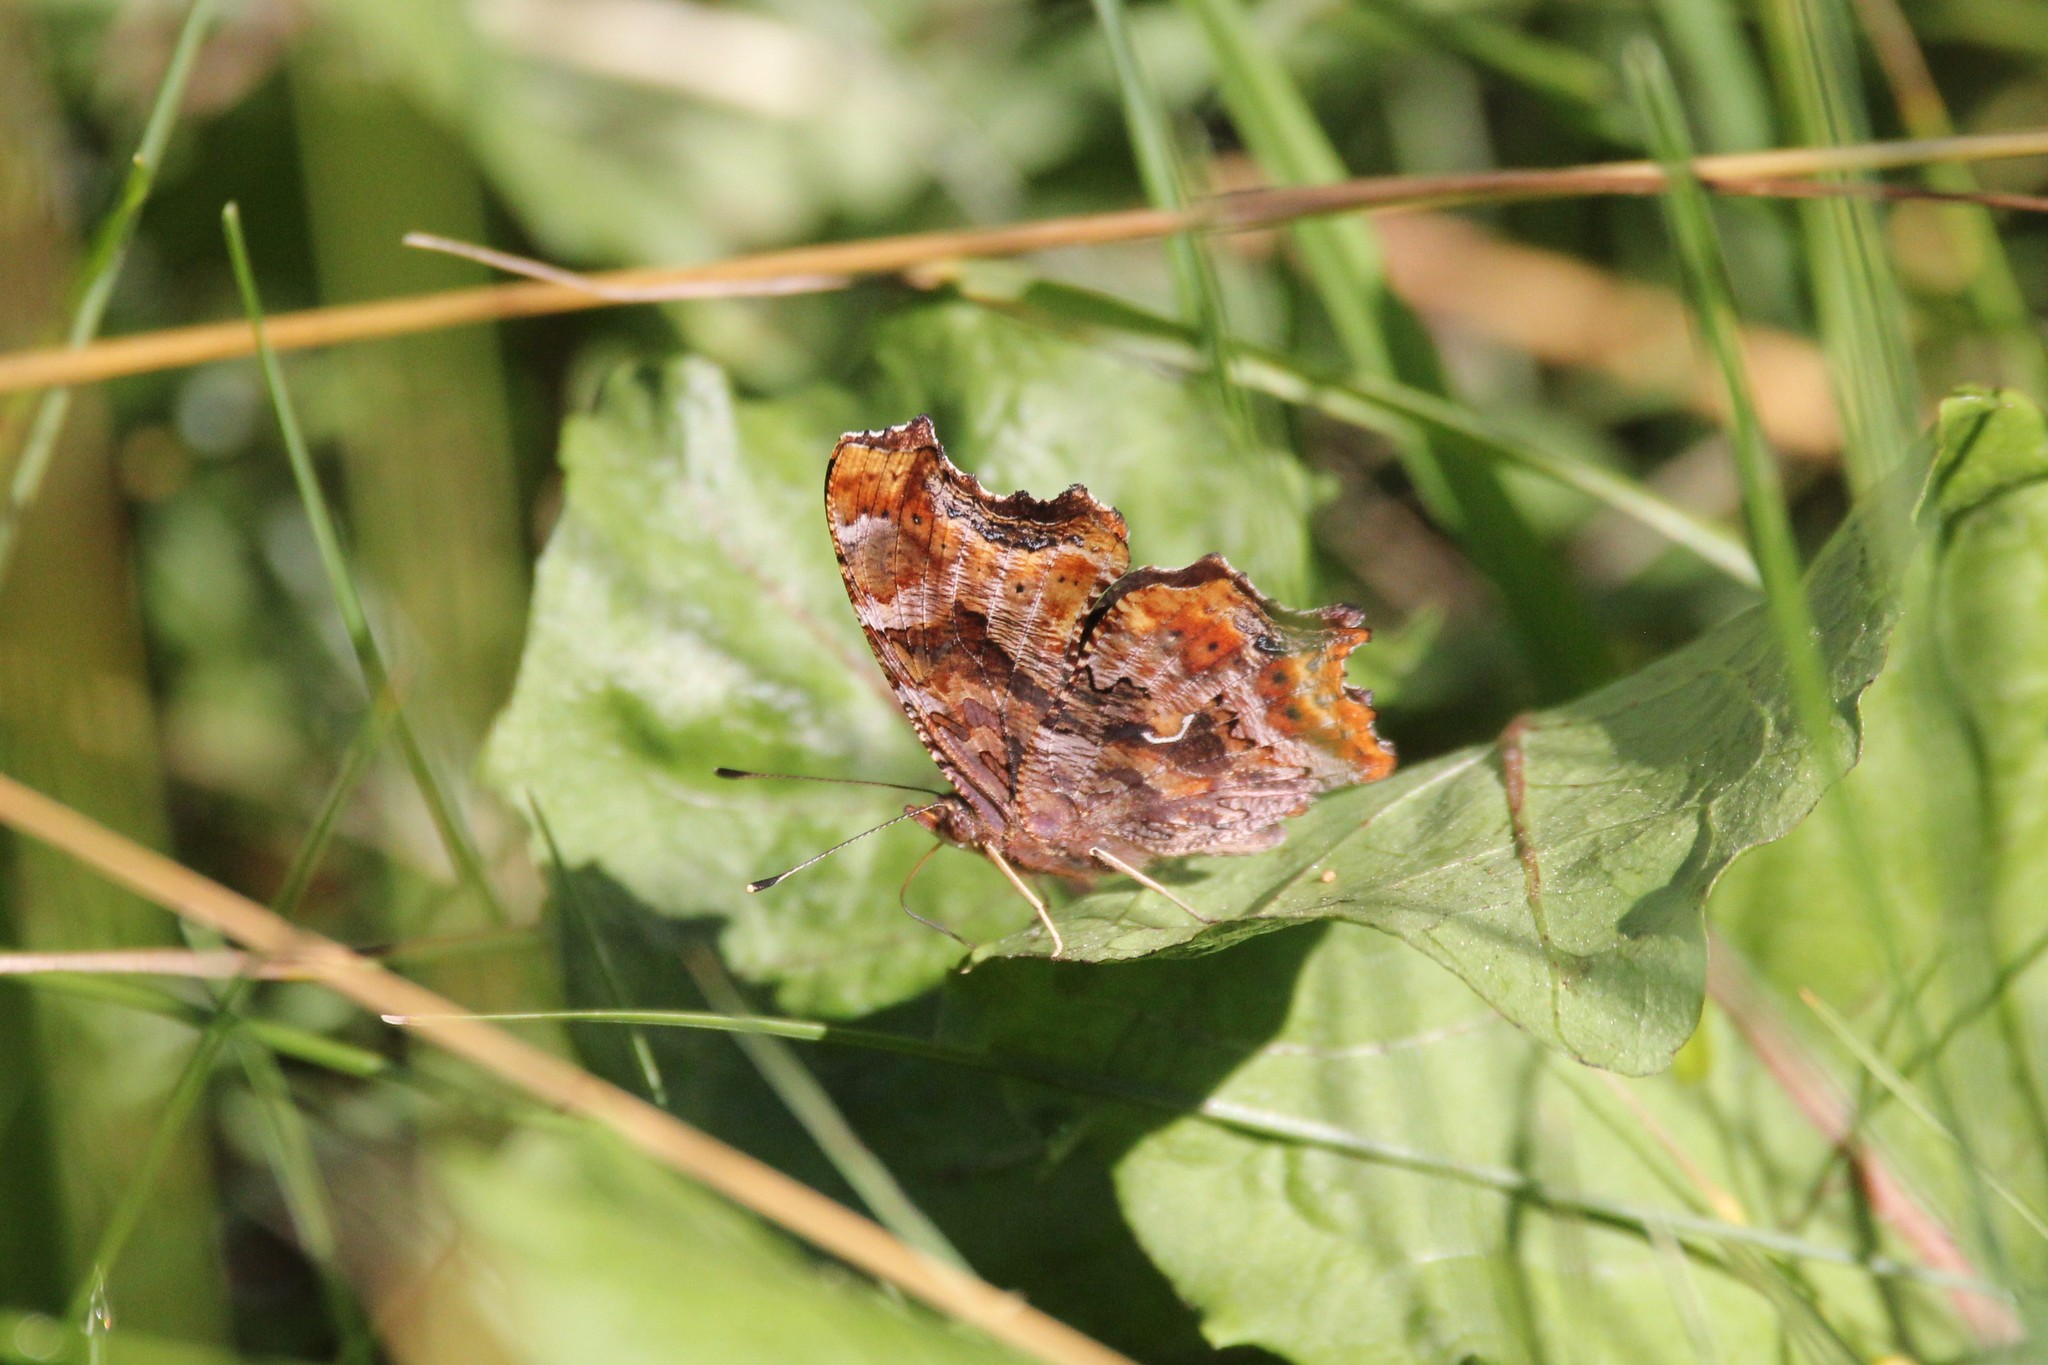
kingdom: Animalia
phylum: Arthropoda
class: Insecta
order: Lepidoptera
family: Nymphalidae
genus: Polygonia
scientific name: Polygonia comma
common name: Eastern comma
